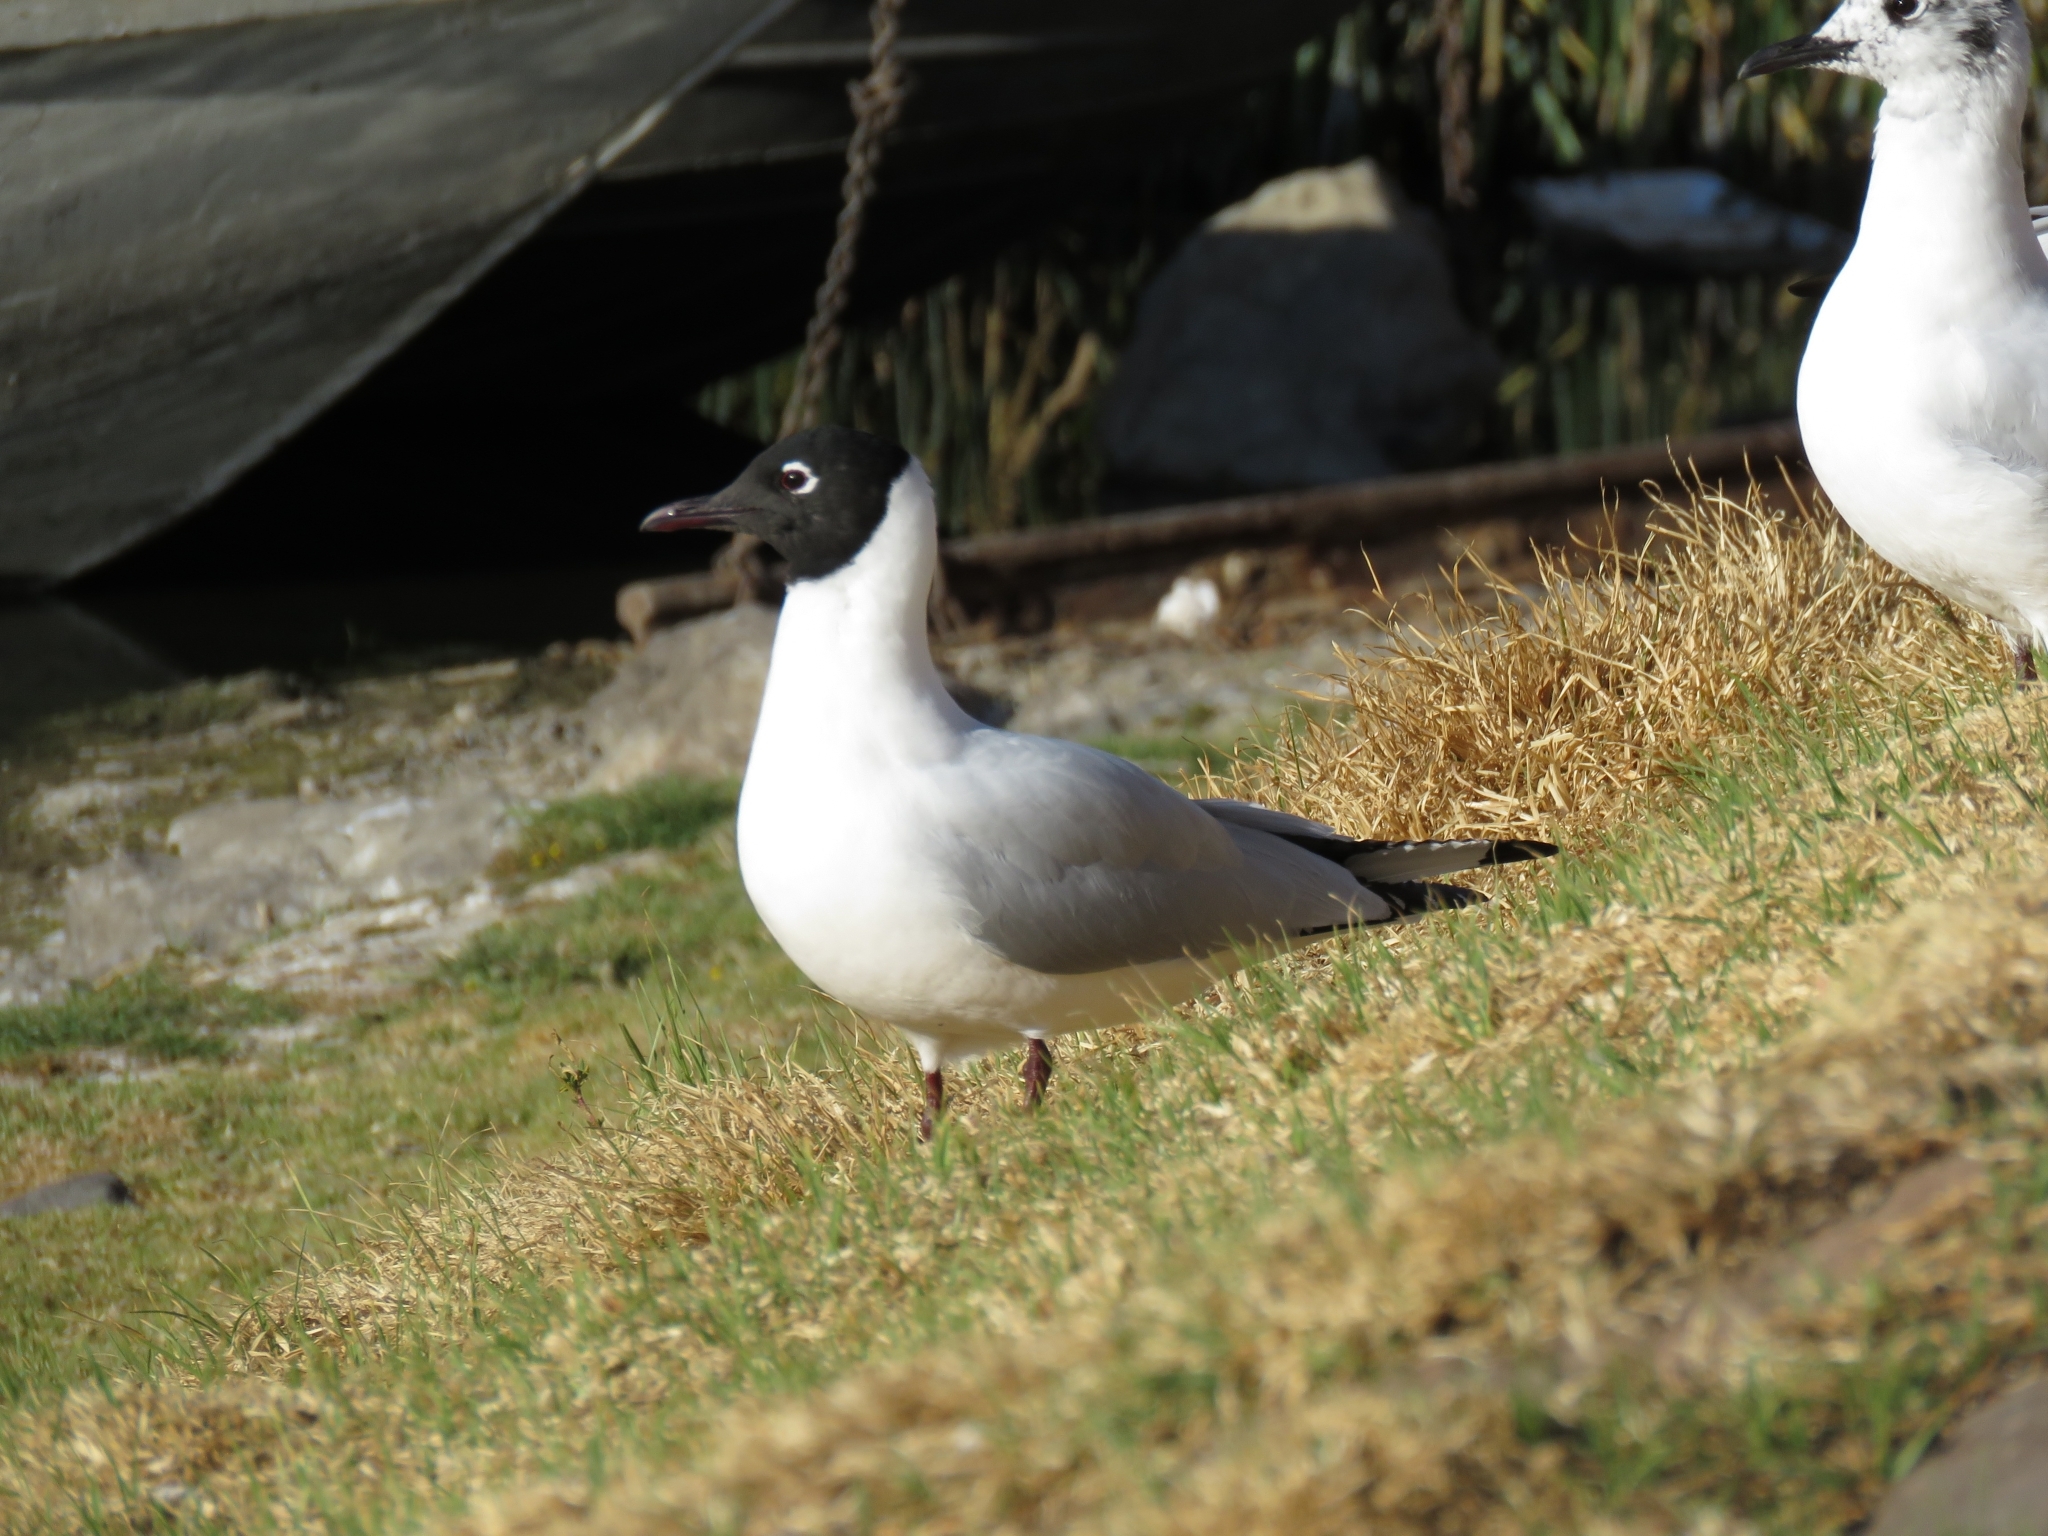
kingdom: Animalia
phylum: Chordata
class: Aves
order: Charadriiformes
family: Laridae
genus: Chroicocephalus
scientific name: Chroicocephalus serranus
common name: Andean gull
